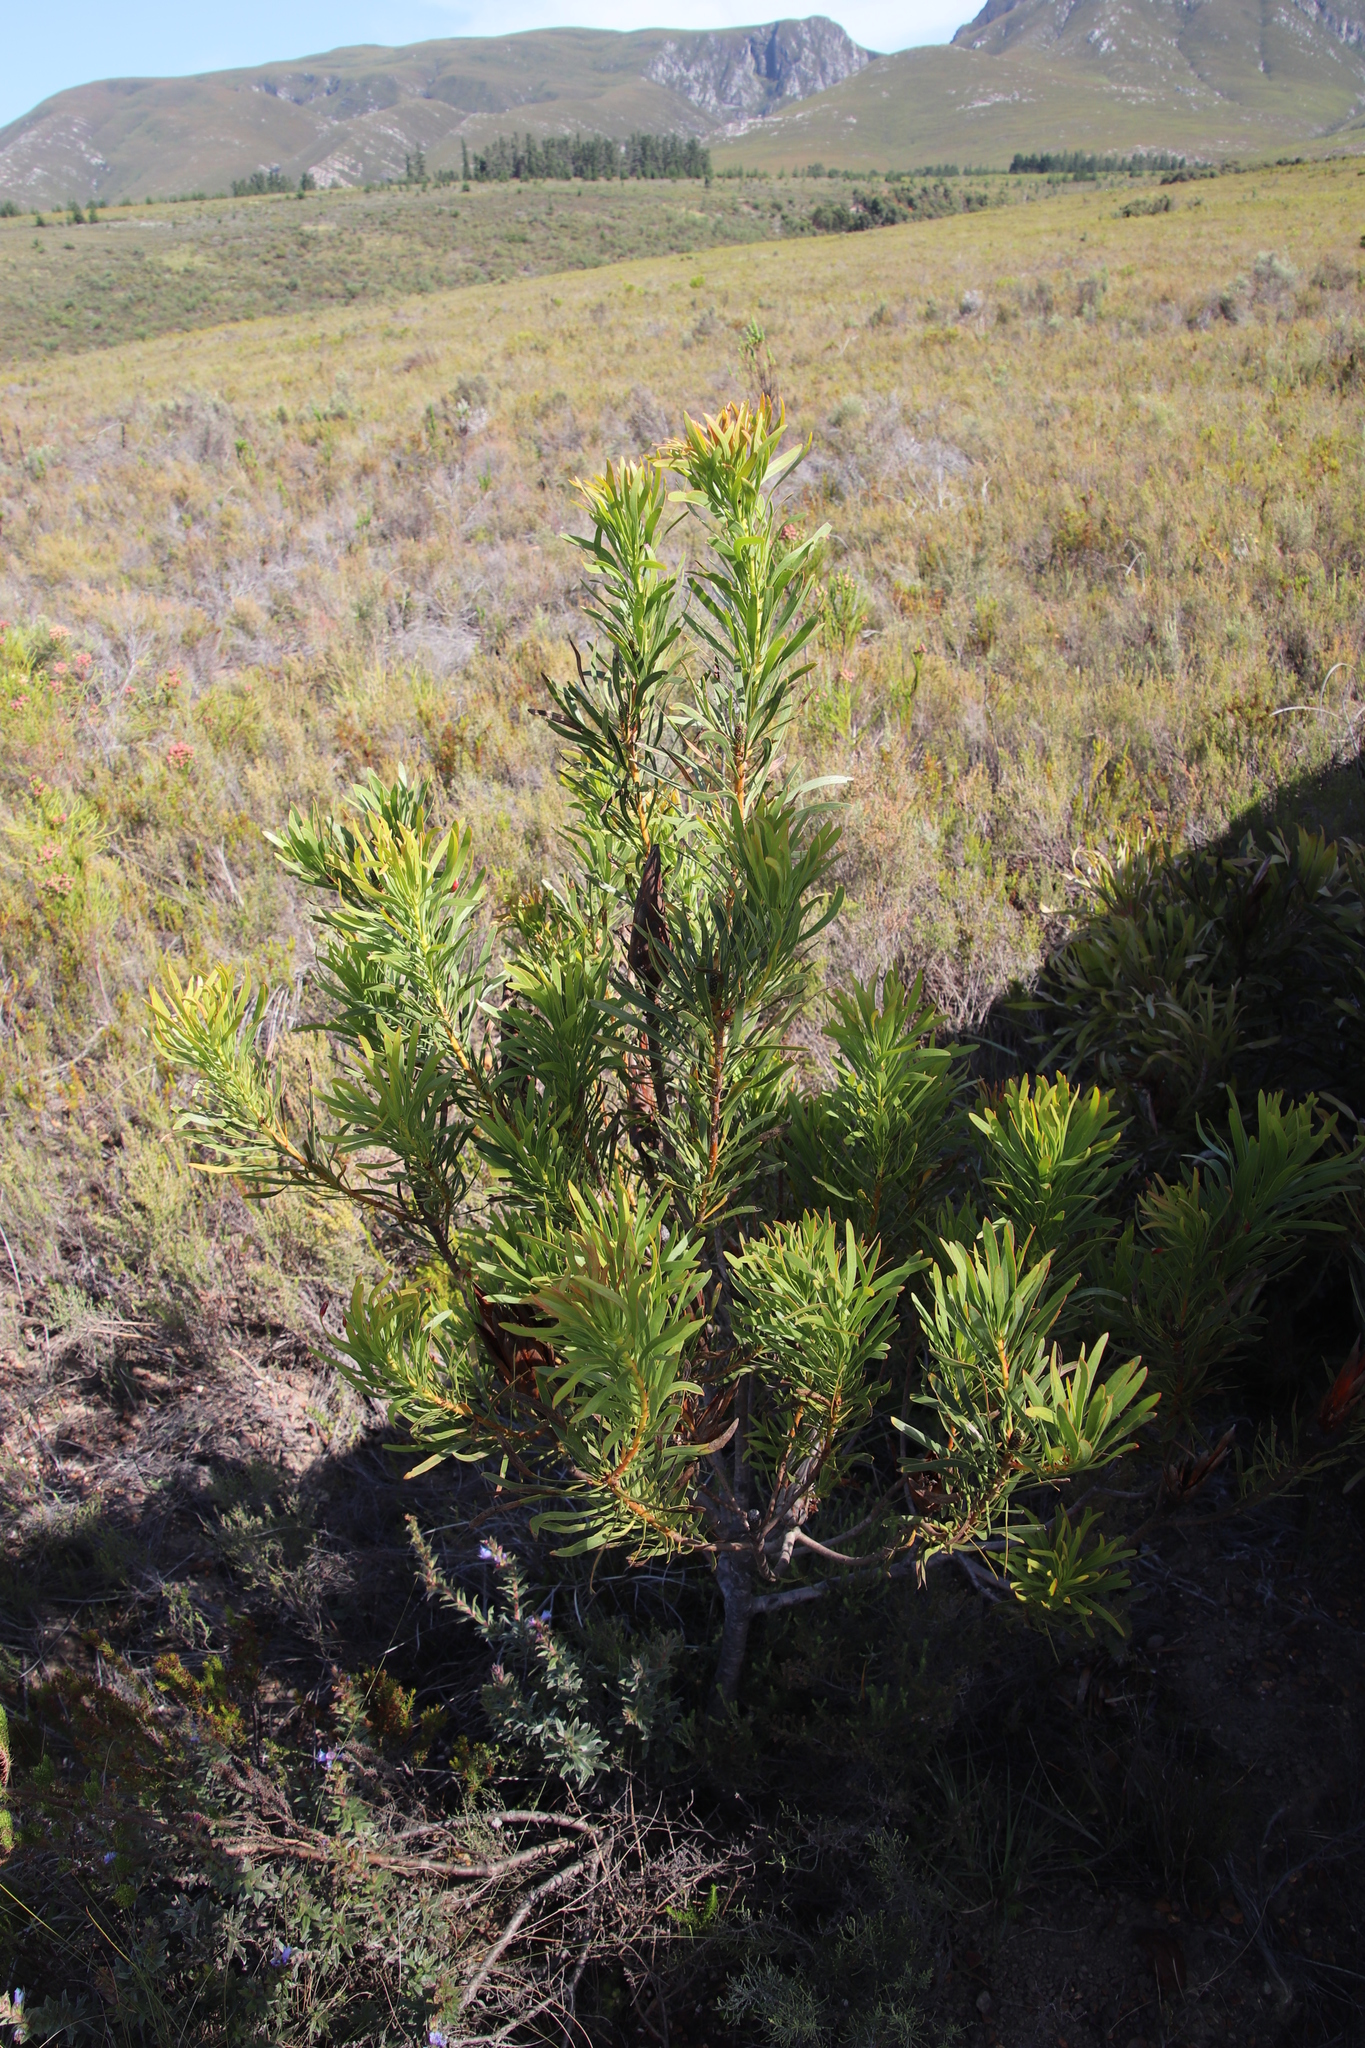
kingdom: Plantae
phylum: Tracheophyta
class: Magnoliopsida
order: Proteales
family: Proteaceae
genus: Protea
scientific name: Protea repens
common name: Sugarbush
